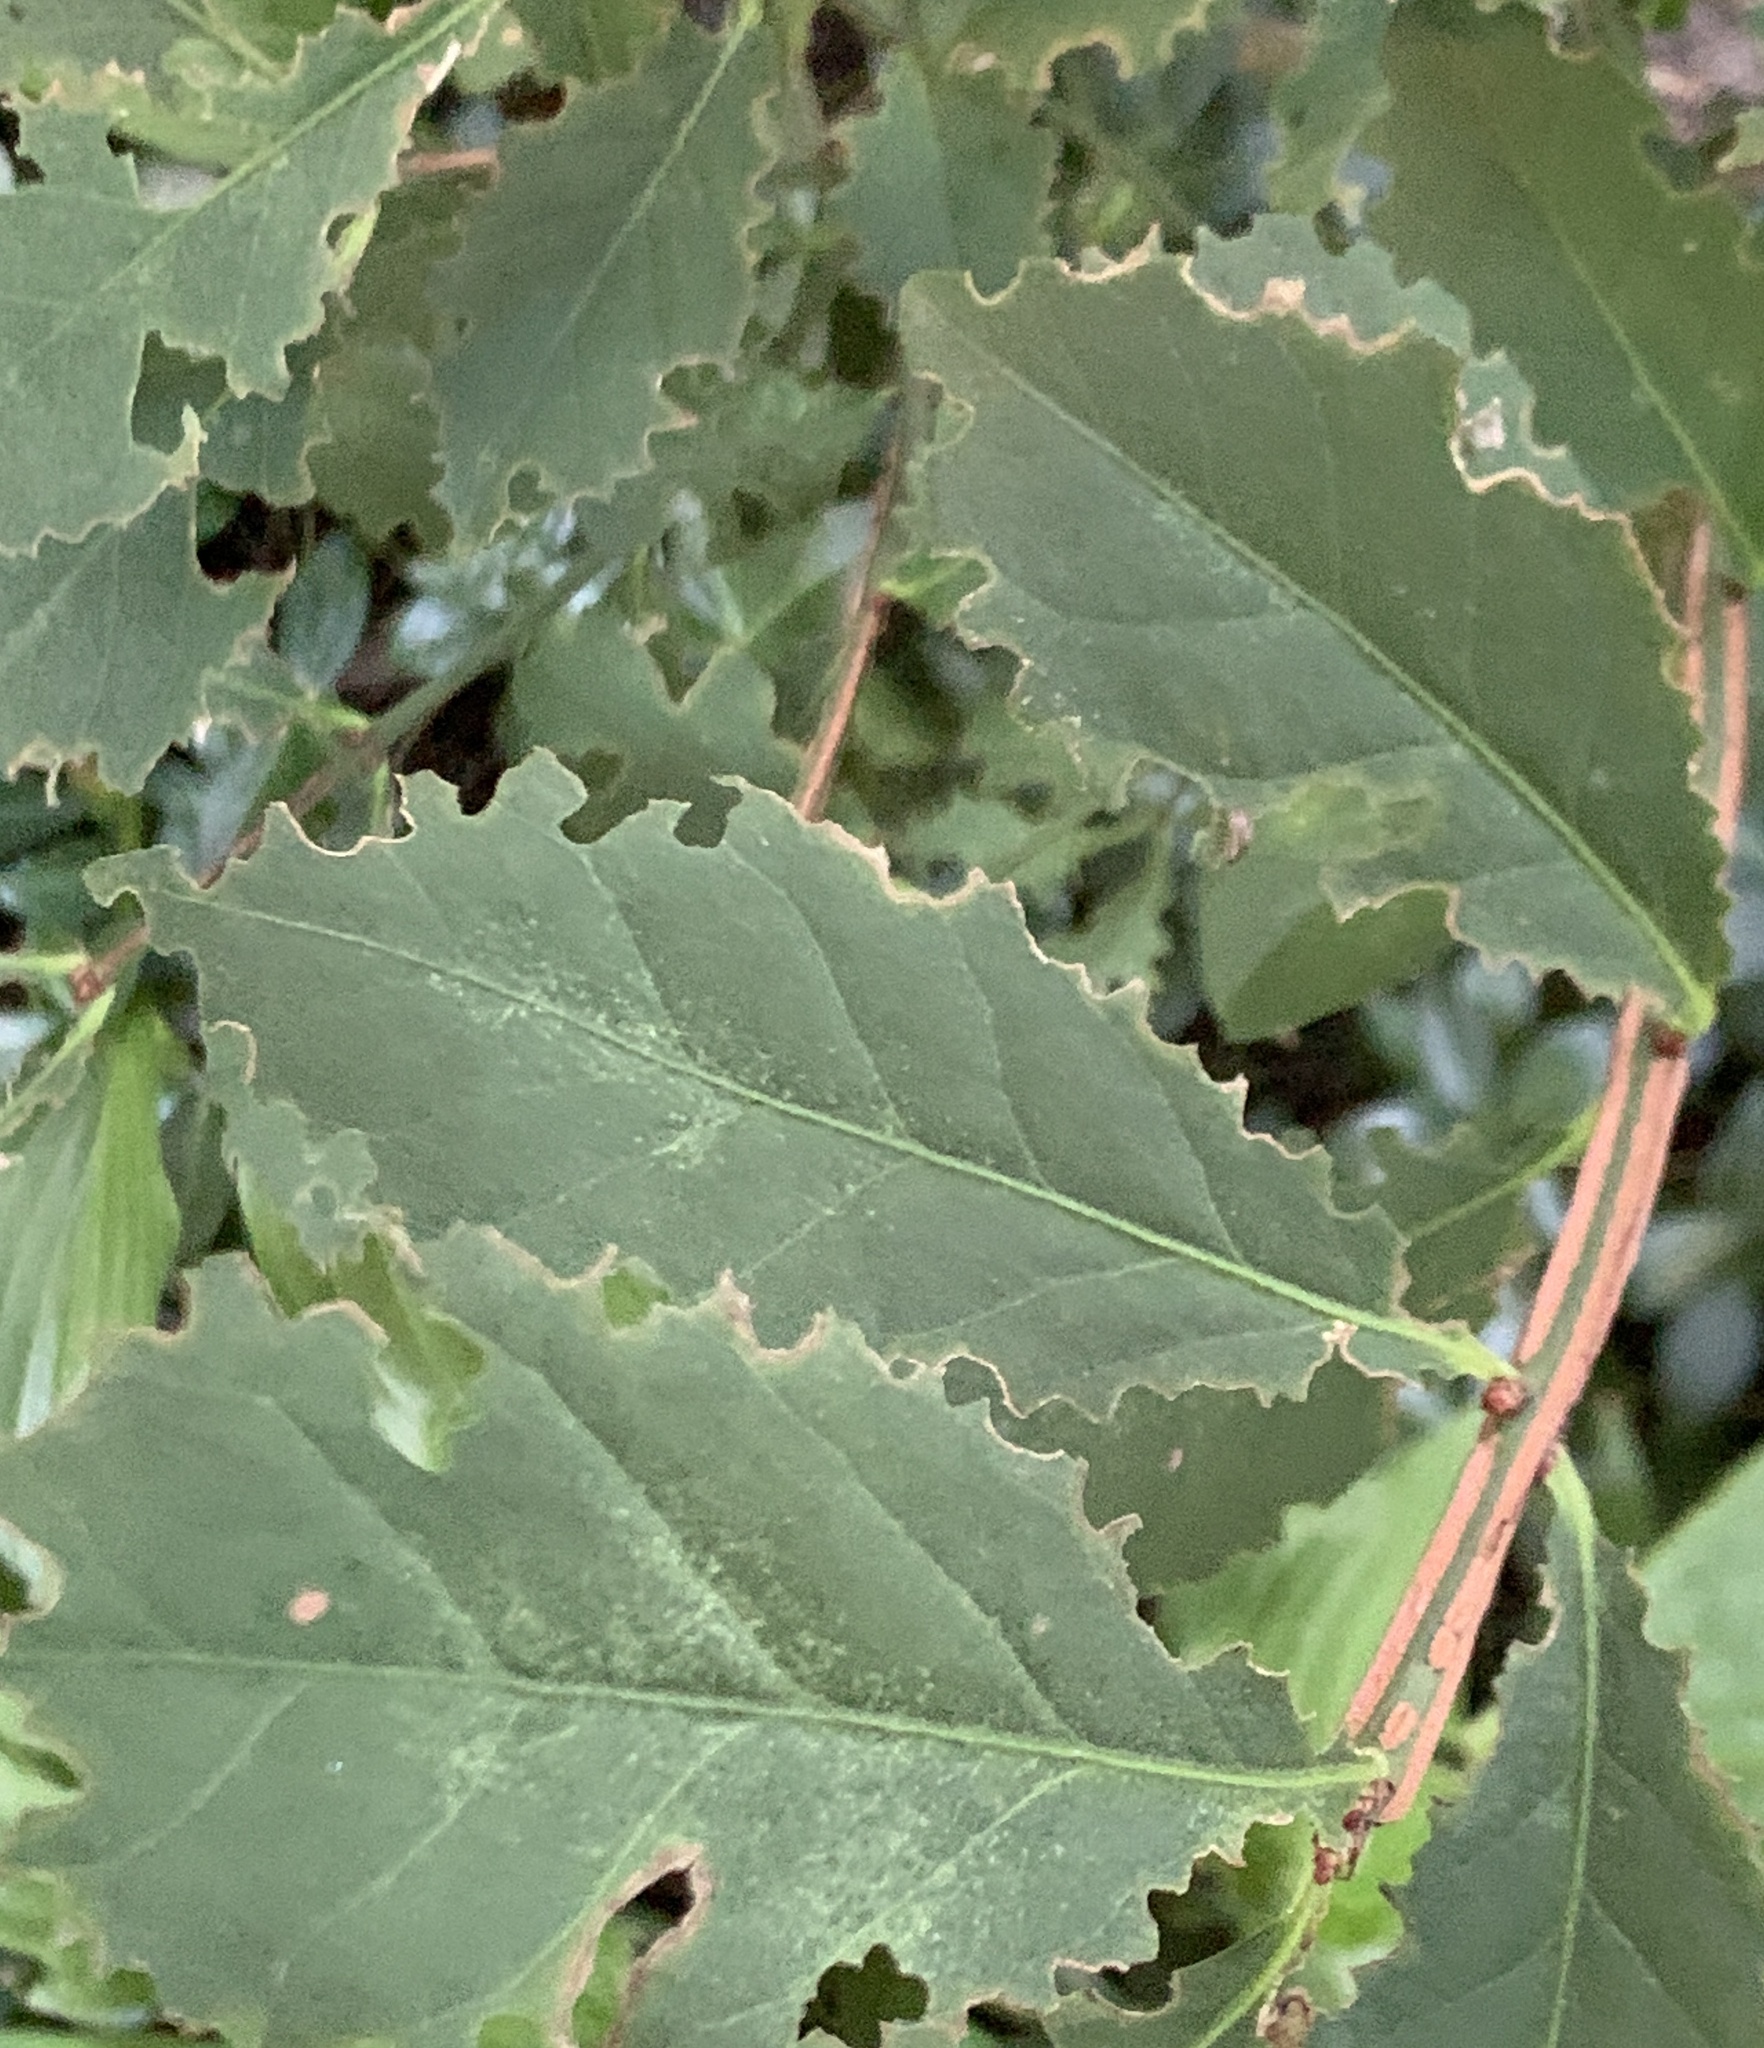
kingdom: Plantae
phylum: Tracheophyta
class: Magnoliopsida
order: Celastrales
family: Celastraceae
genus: Euonymus
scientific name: Euonymus alatus
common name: Winged euonymus
